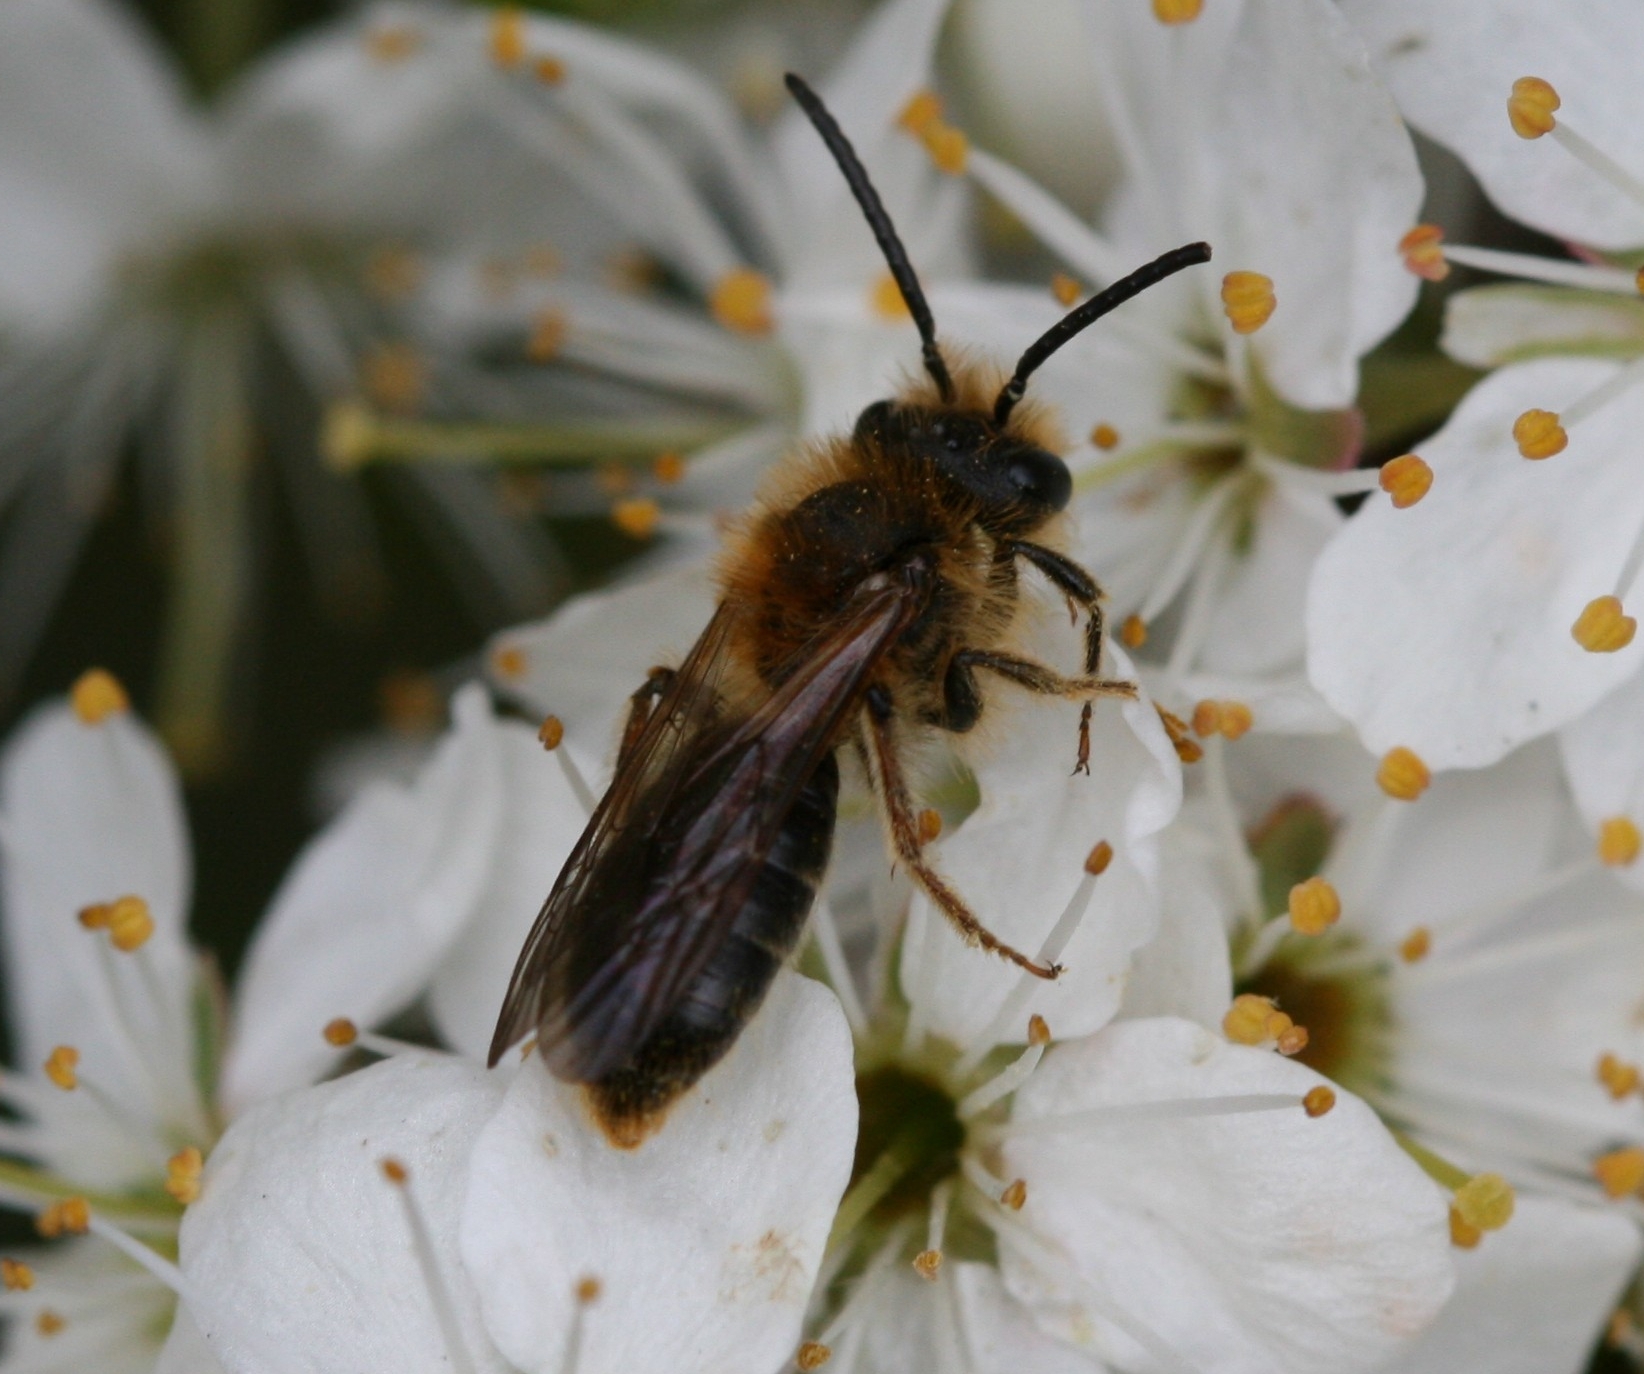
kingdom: Animalia
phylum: Arthropoda
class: Insecta
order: Hymenoptera
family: Andrenidae
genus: Andrena
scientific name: Andrena haemorrhoa
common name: Early mining bee
